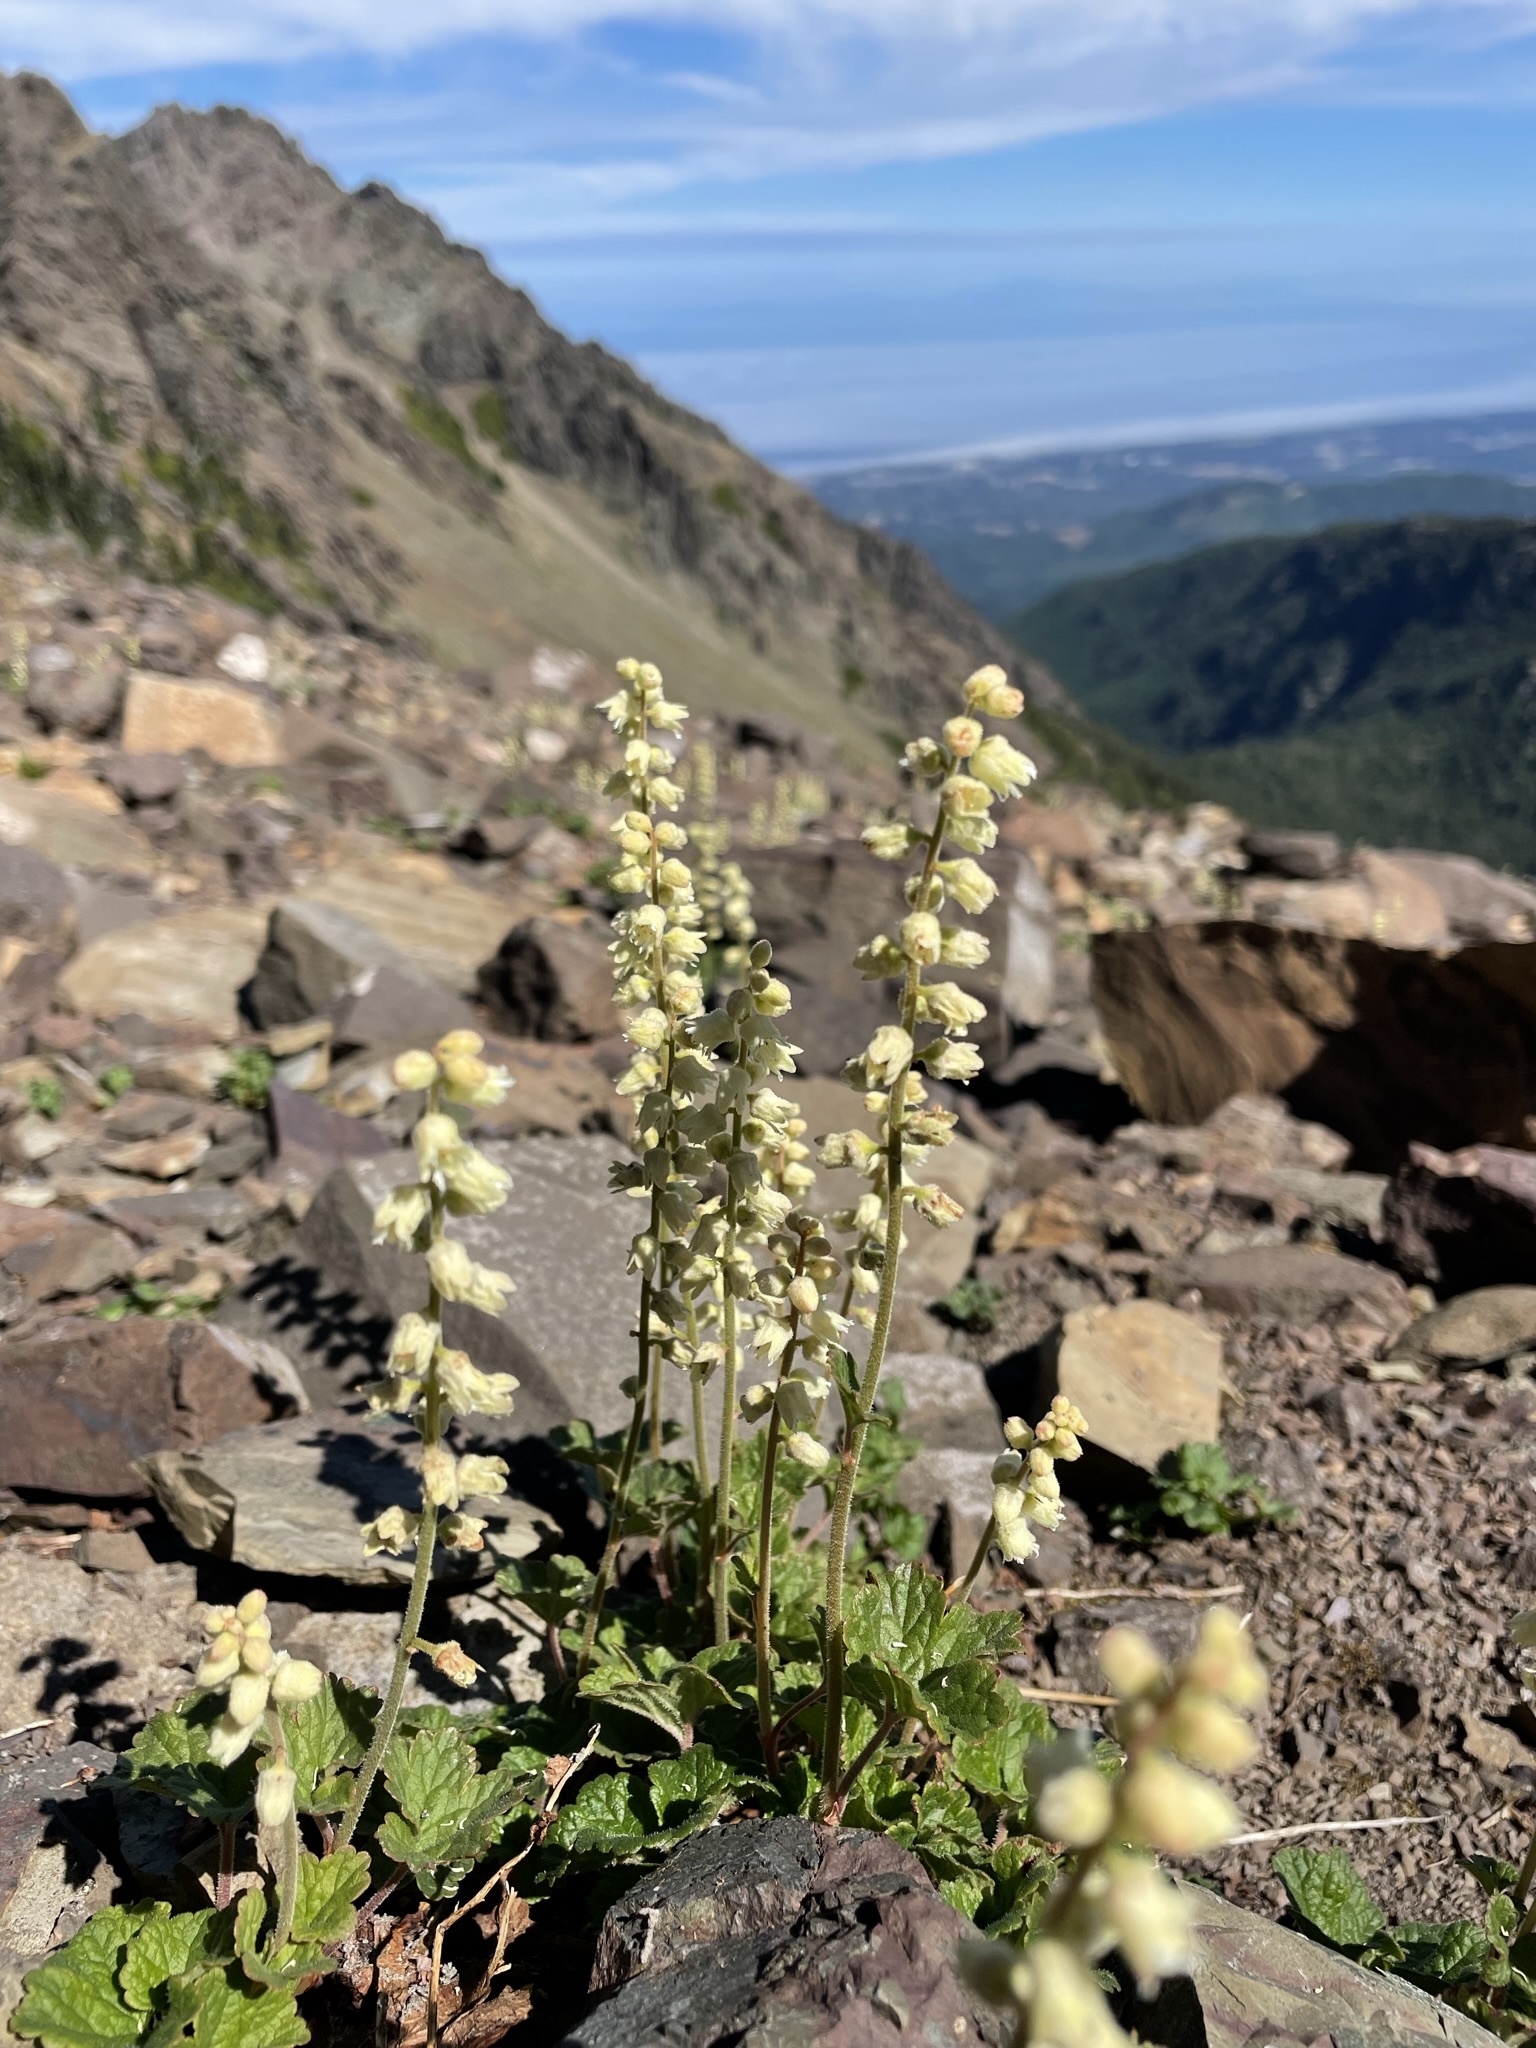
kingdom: Plantae
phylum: Tracheophyta
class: Magnoliopsida
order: Saxifragales
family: Saxifragaceae
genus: Elmera
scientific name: Elmera racemosa
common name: Elmera
